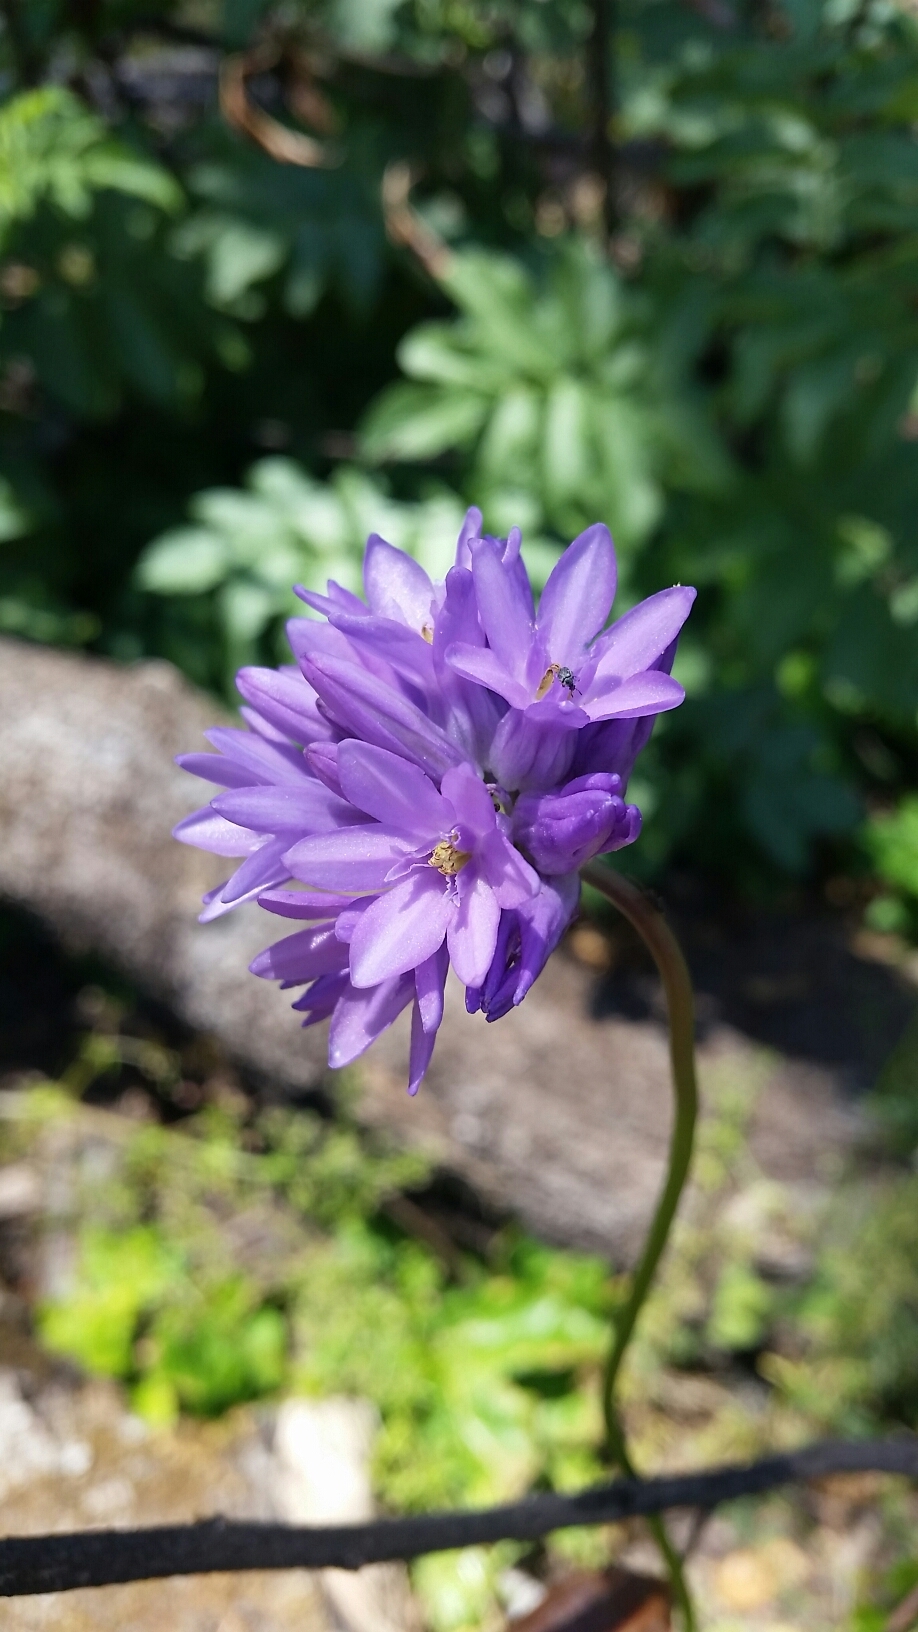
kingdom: Plantae
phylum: Tracheophyta
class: Liliopsida
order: Asparagales
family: Asparagaceae
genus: Dichelostemma
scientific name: Dichelostemma congestum
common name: Fork-tooth ookow
